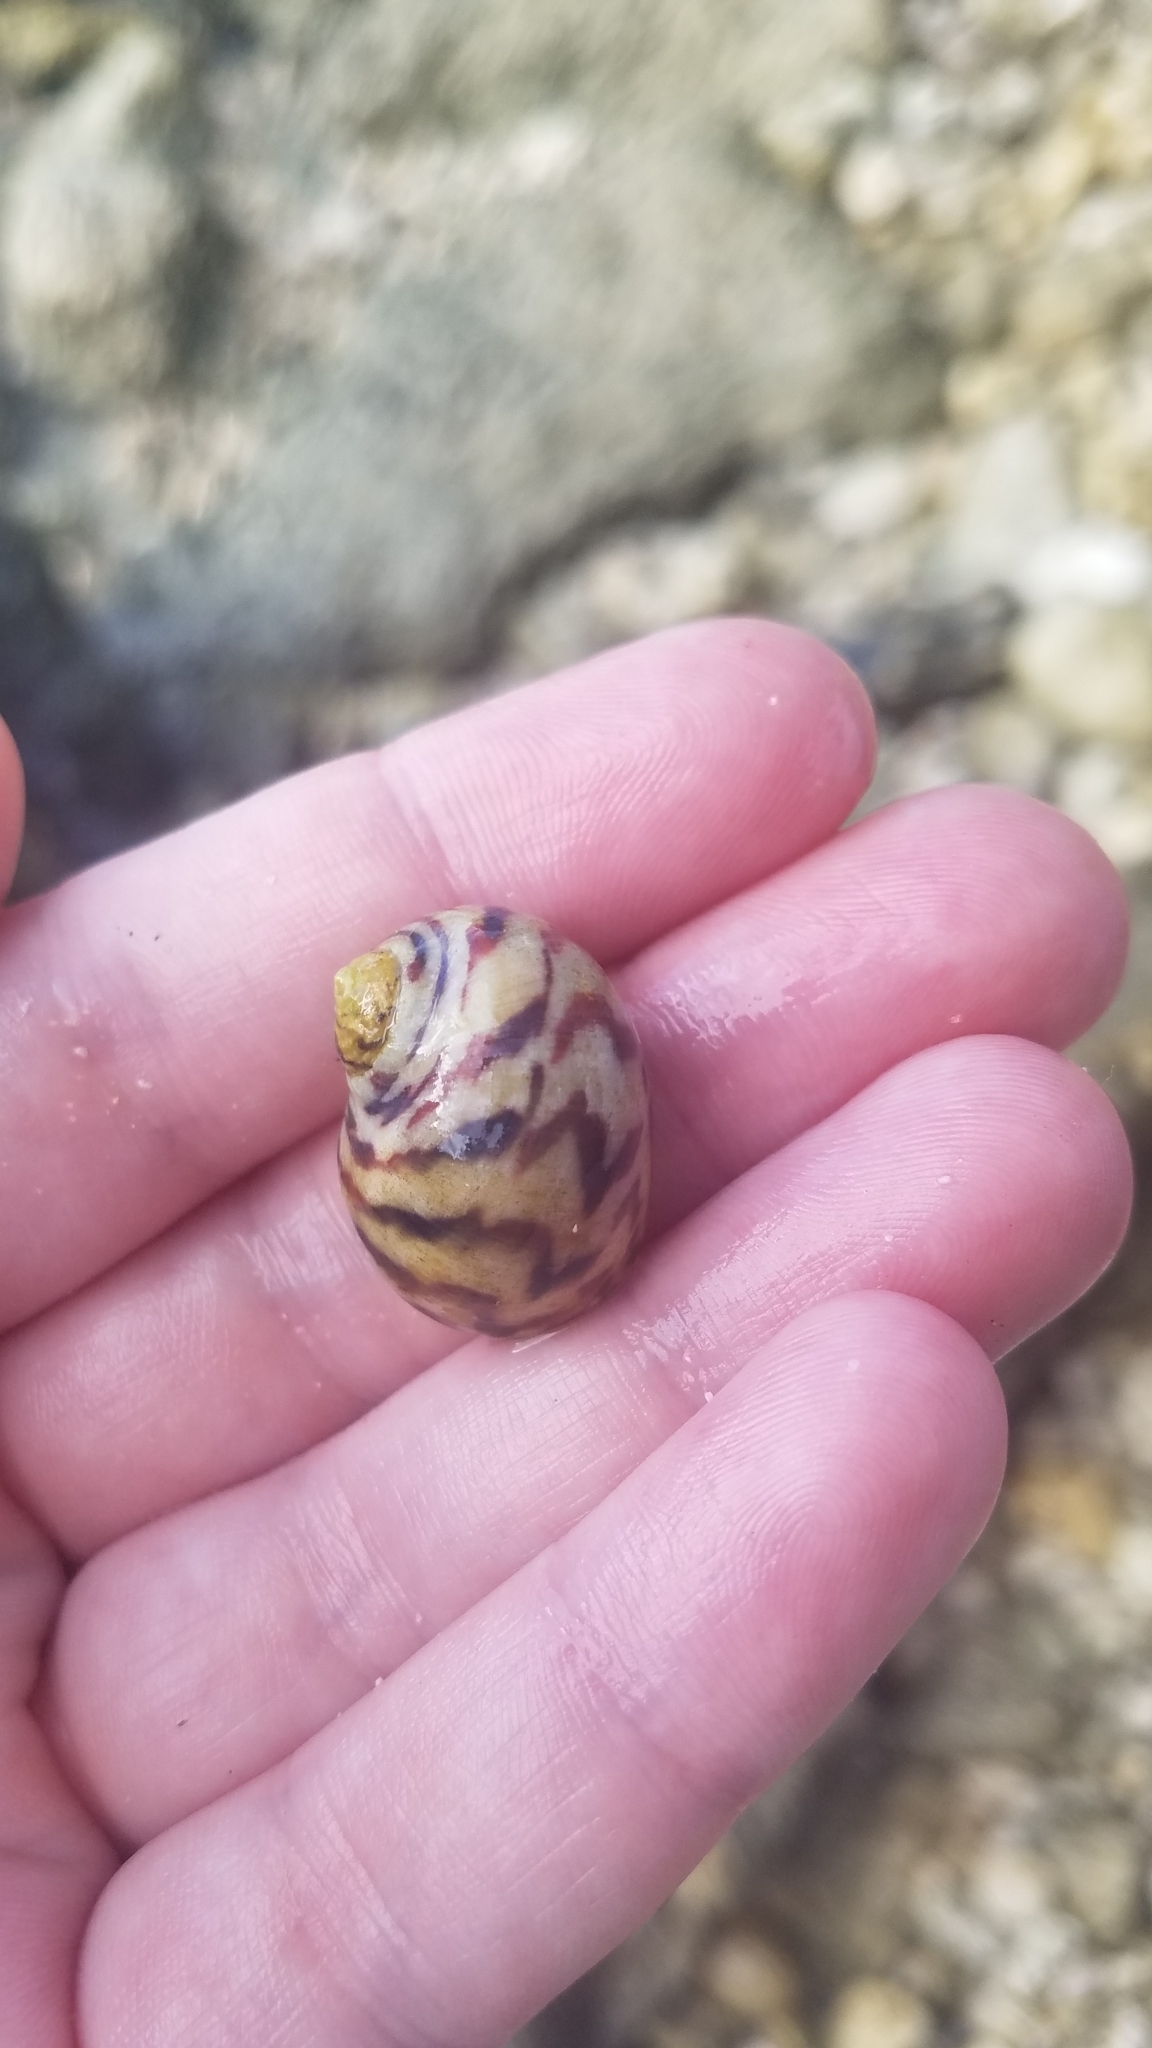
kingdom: Animalia
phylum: Mollusca
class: Gastropoda
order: Cycloneritida
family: Neritidae
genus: Nerita
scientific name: Nerita peloronta
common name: Bleeding tooth
